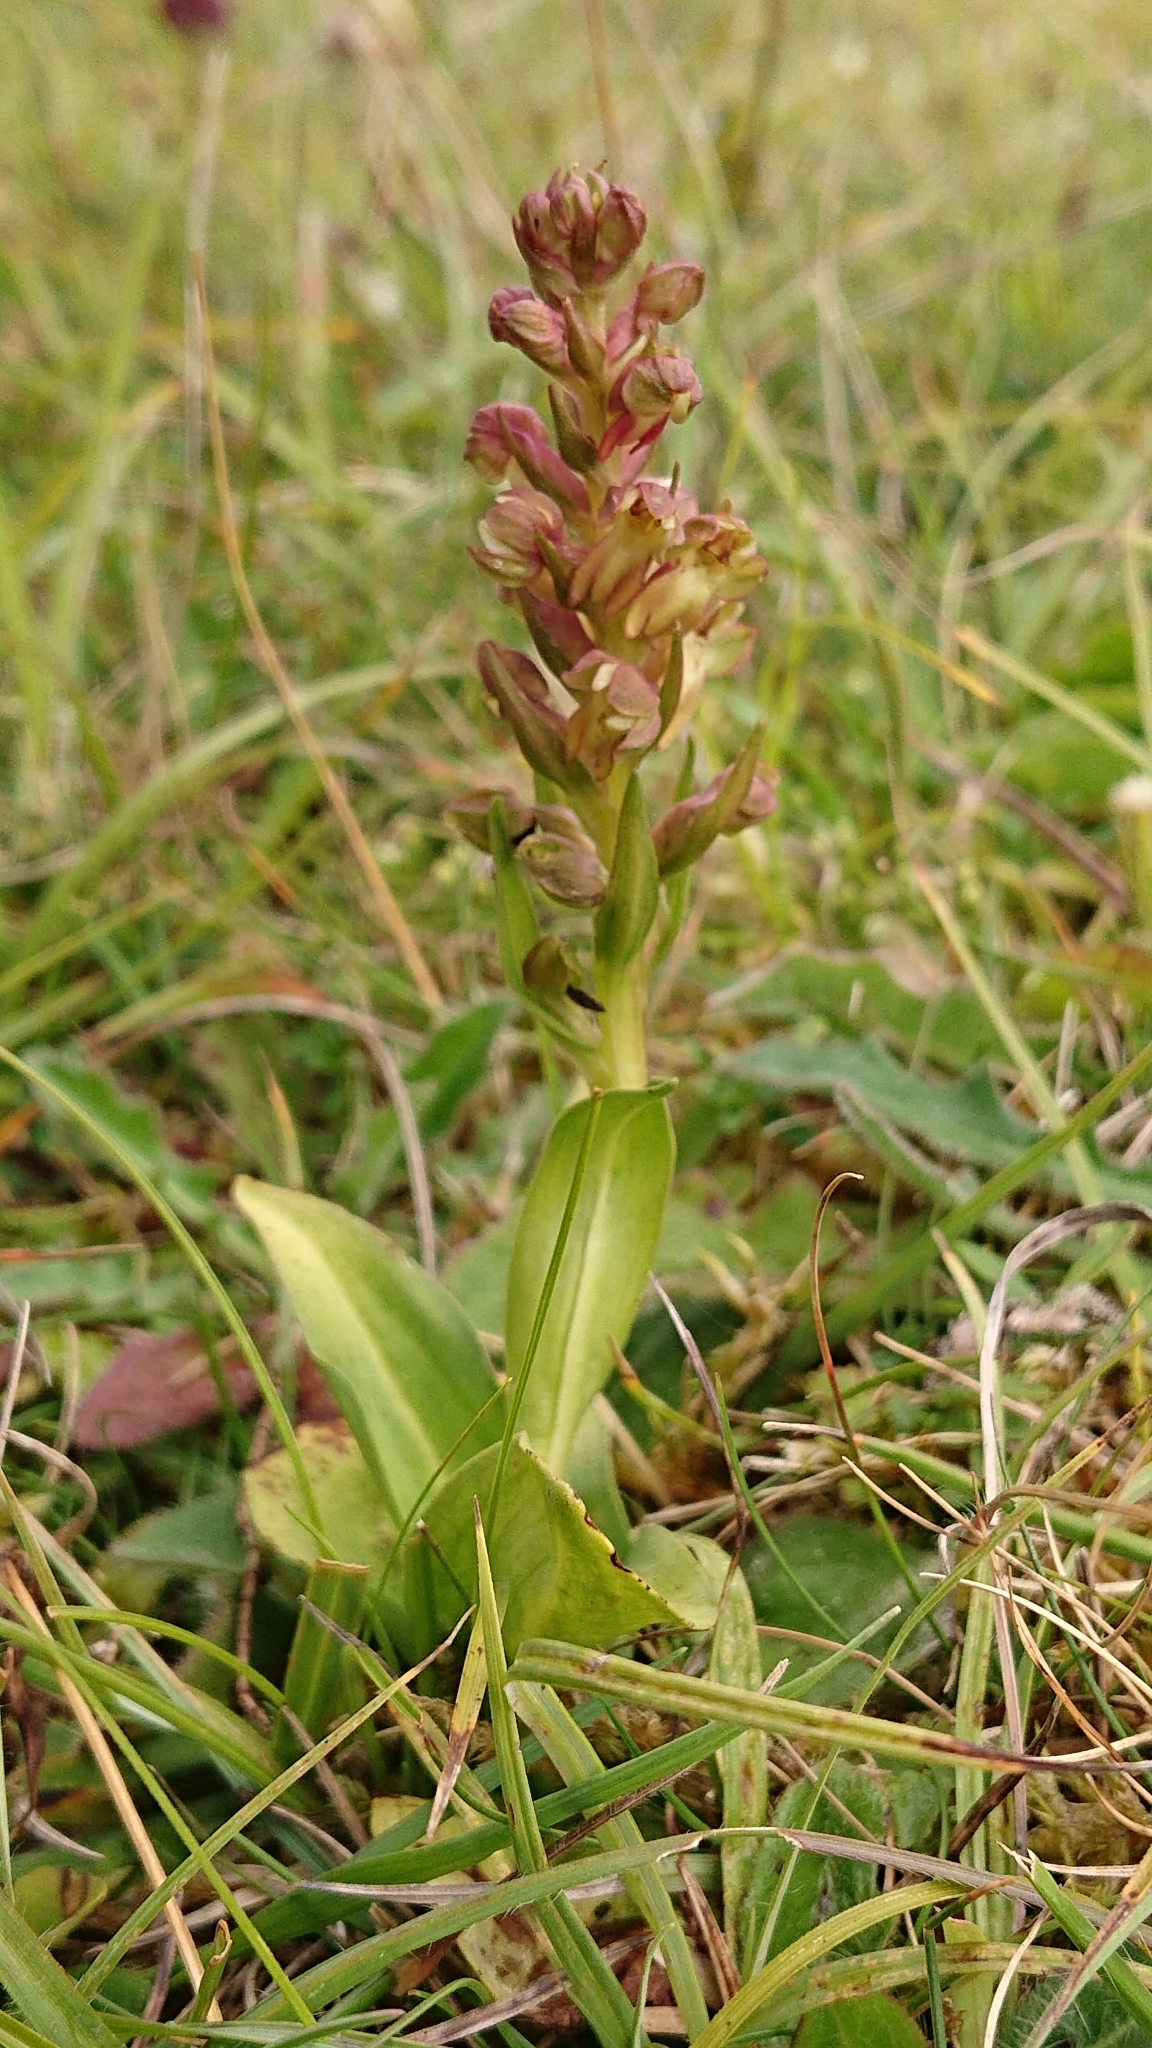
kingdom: Plantae
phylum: Tracheophyta
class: Liliopsida
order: Asparagales
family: Orchidaceae
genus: Dactylorhiza
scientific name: Dactylorhiza viridis
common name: Longbract frog orchid
